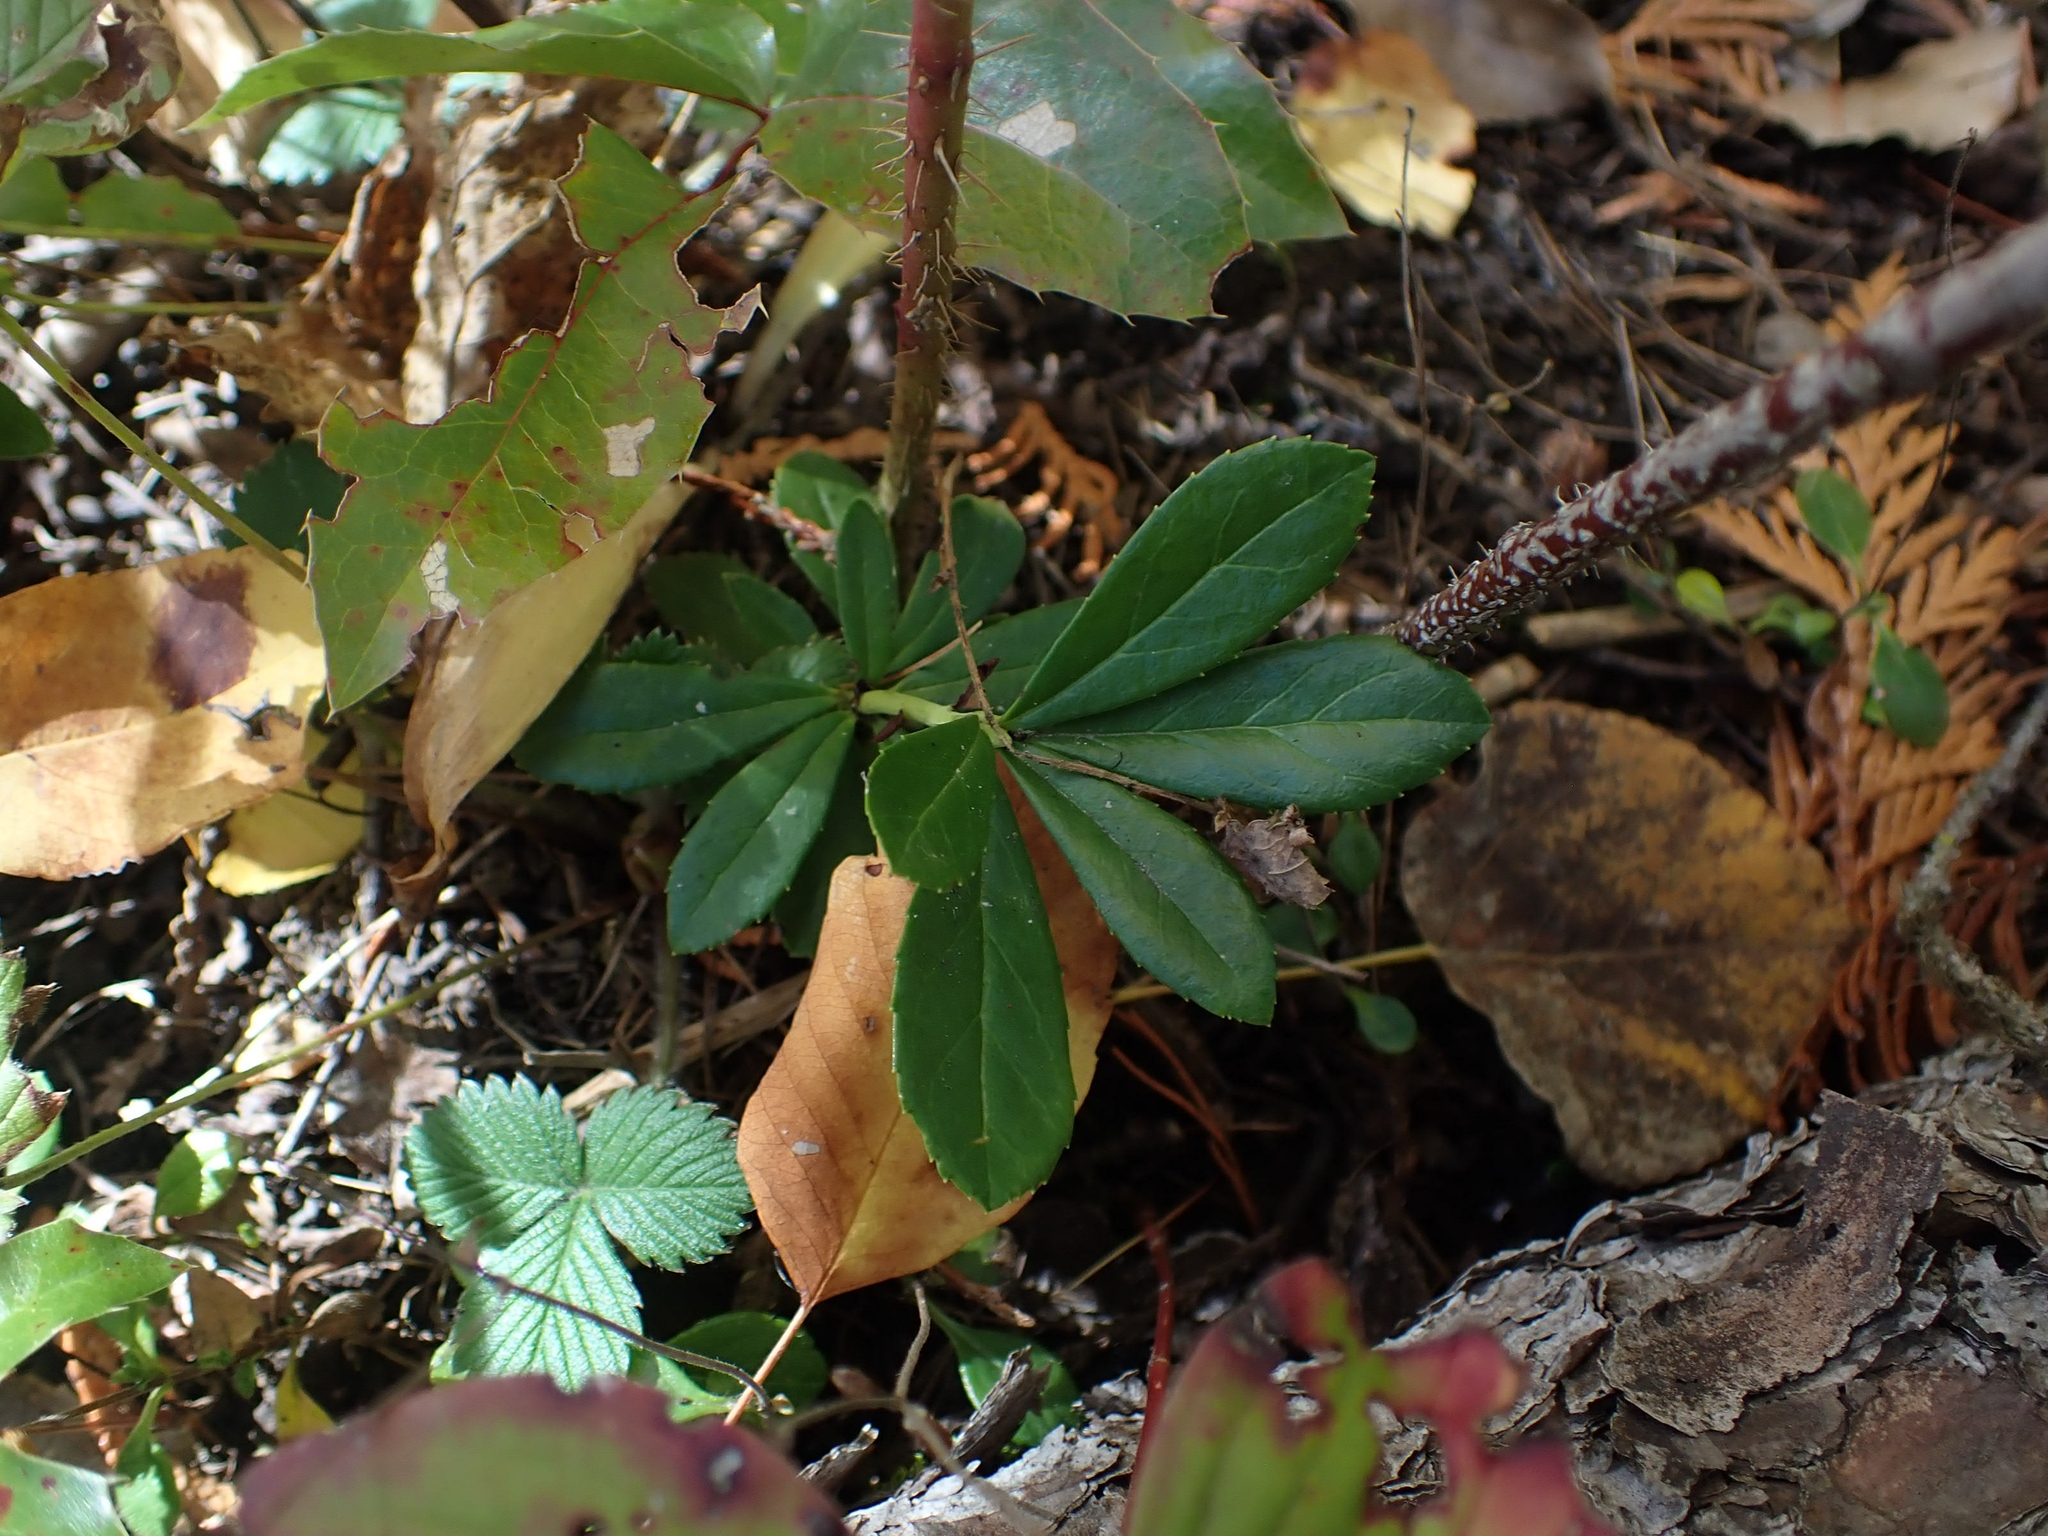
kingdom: Plantae
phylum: Tracheophyta
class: Magnoliopsida
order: Ericales
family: Ericaceae
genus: Chimaphila
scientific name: Chimaphila umbellata
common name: Pipsissewa
